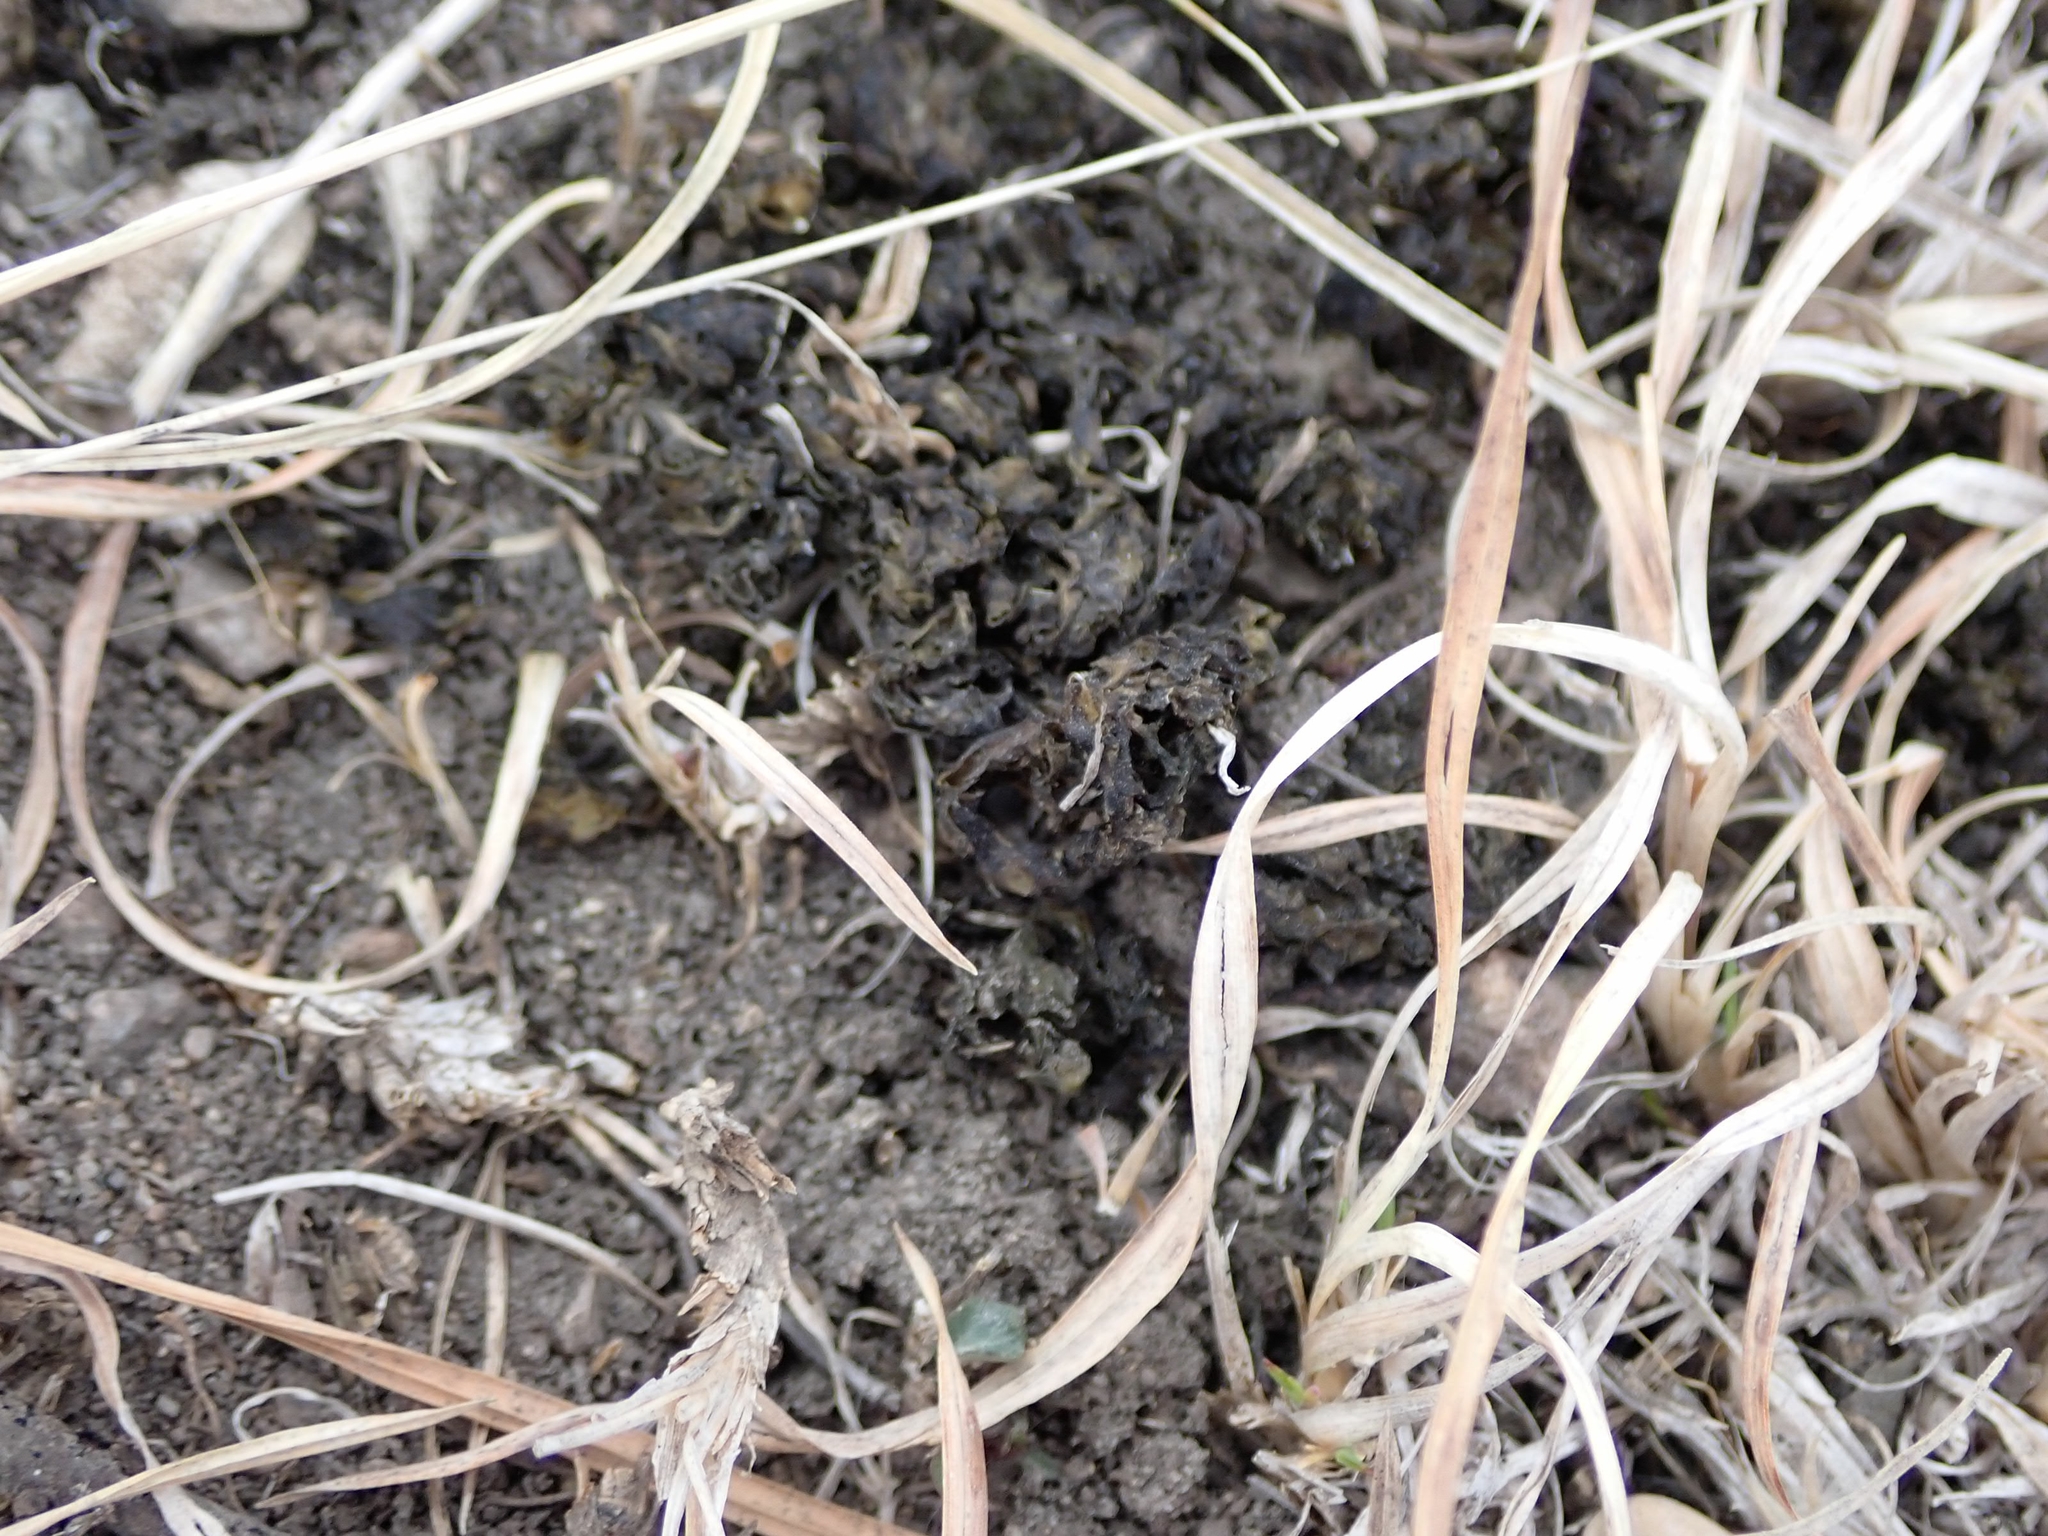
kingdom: Bacteria
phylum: Cyanobacteria
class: Cyanobacteriia
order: Cyanobacteriales
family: Nostocaceae
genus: Nostoc
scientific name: Nostoc commune
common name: Star jelly
